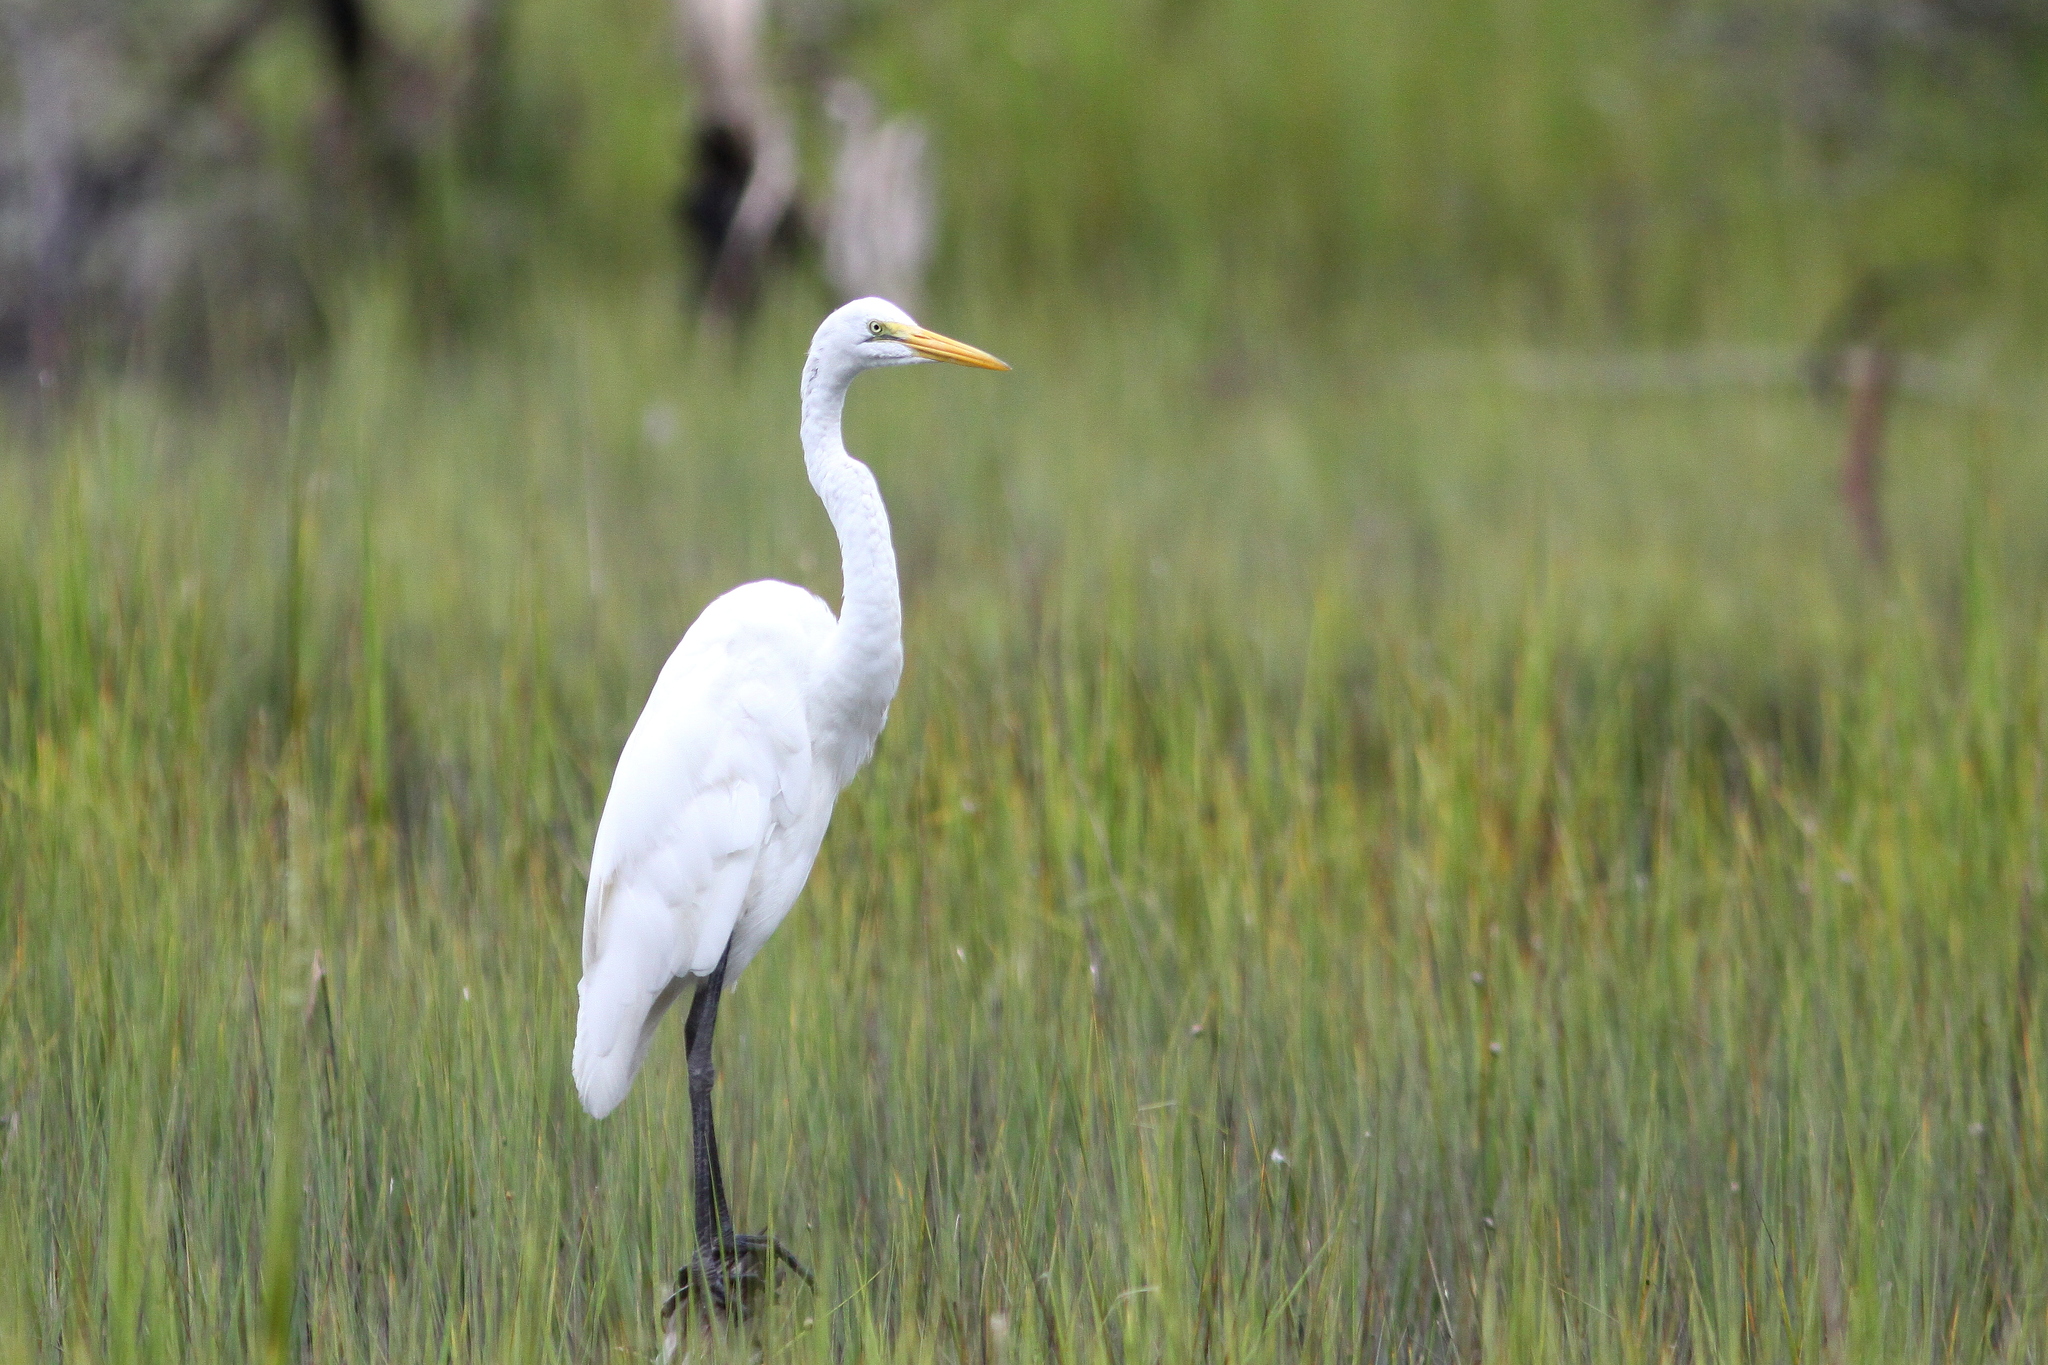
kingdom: Animalia
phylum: Chordata
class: Aves
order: Pelecaniformes
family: Ardeidae
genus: Ardea
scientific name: Ardea alba
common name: Great egret
